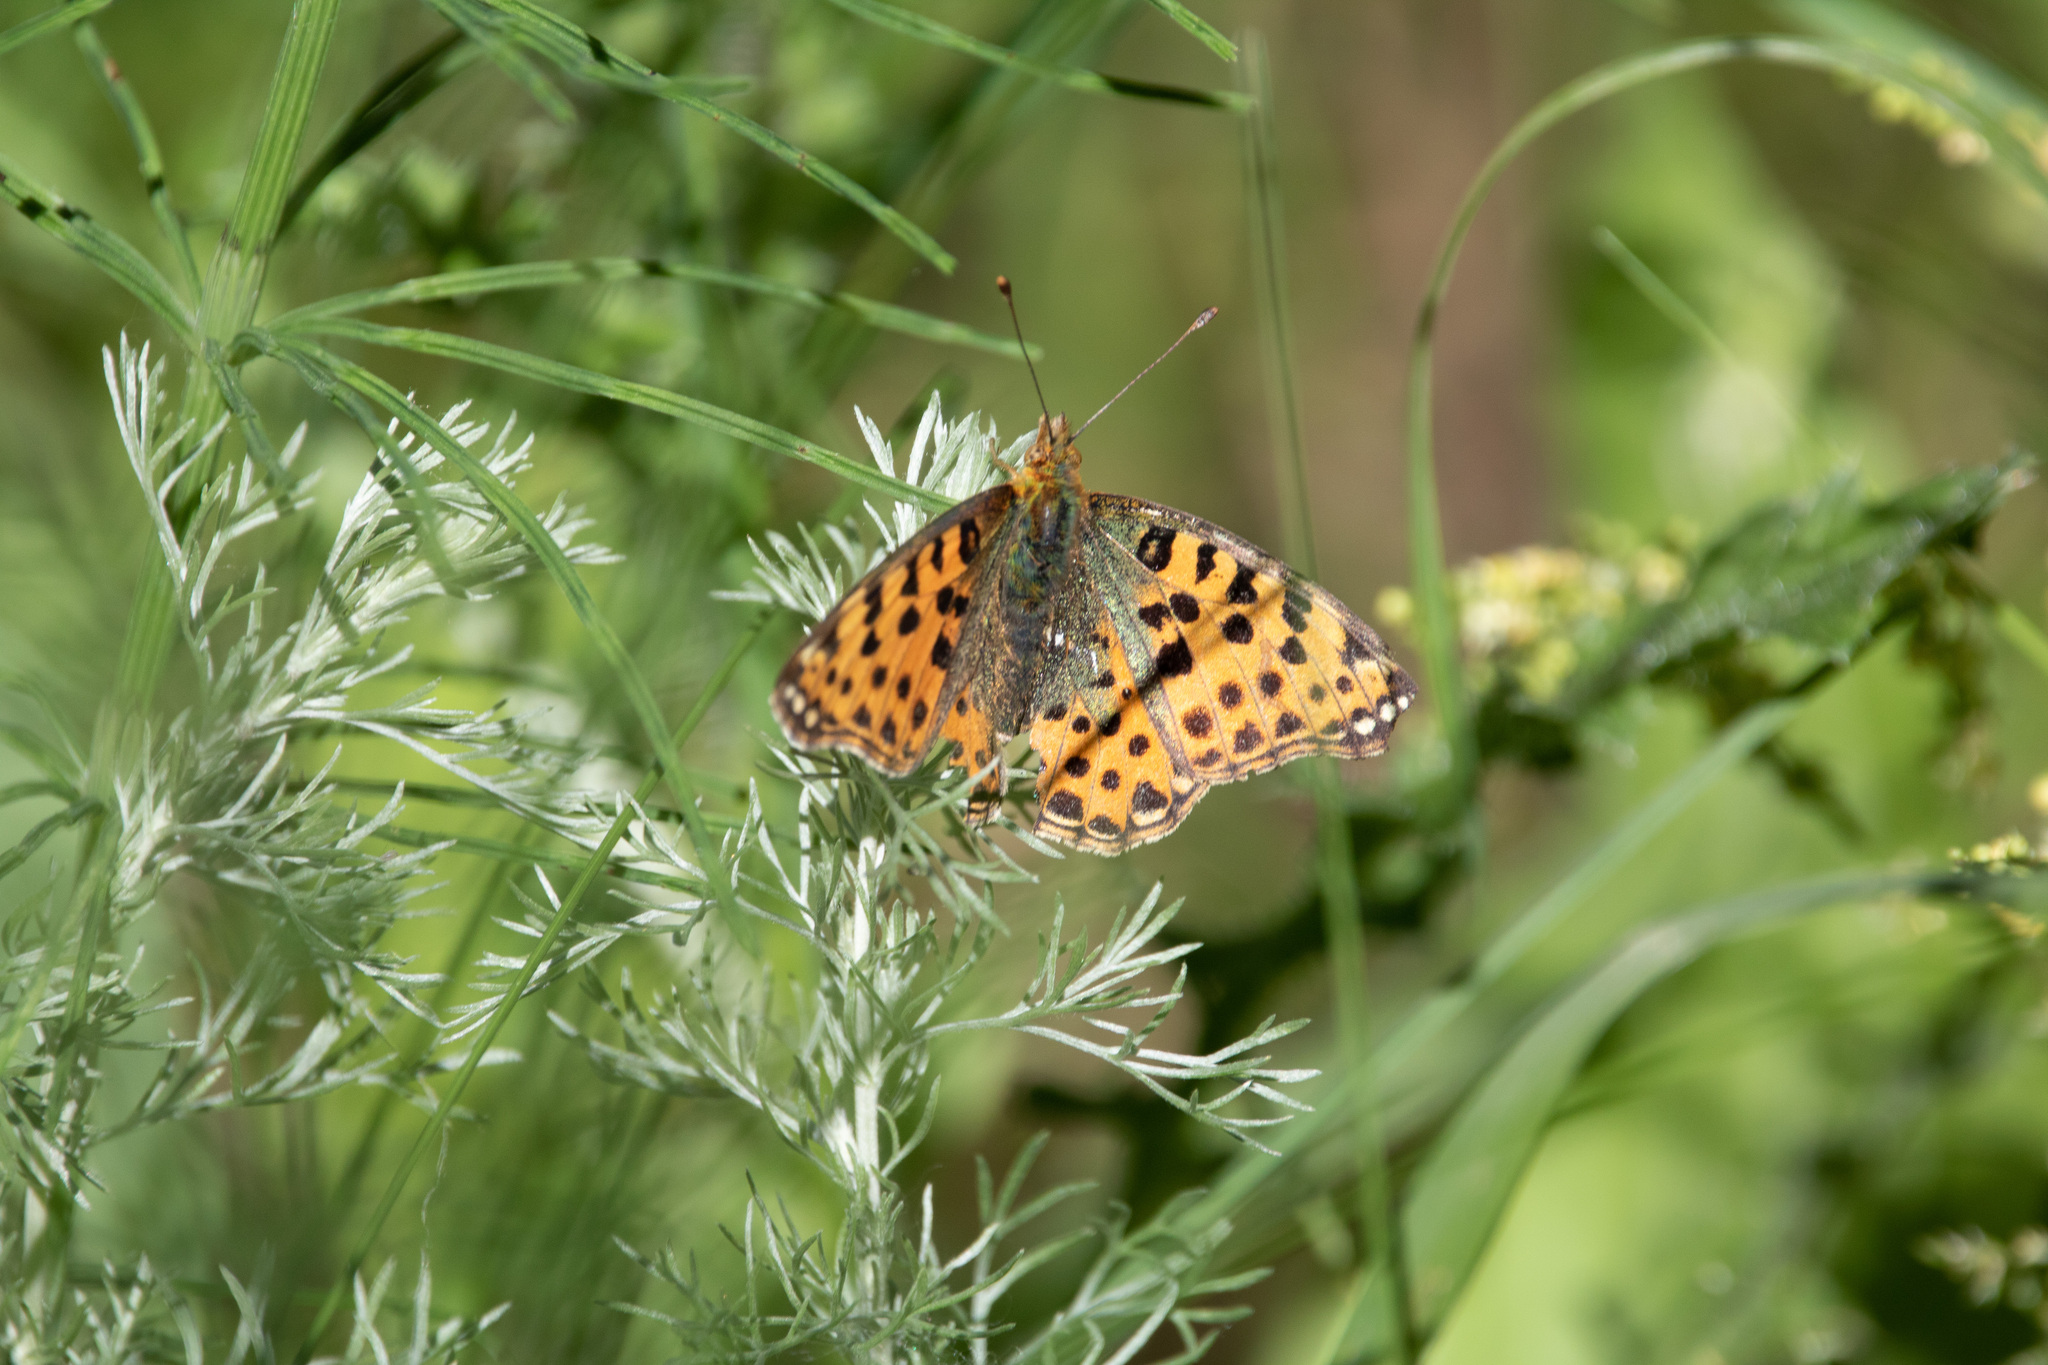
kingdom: Animalia
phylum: Arthropoda
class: Insecta
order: Lepidoptera
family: Nymphalidae
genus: Issoria
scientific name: Issoria lathonia
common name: Queen of spain fritillary
